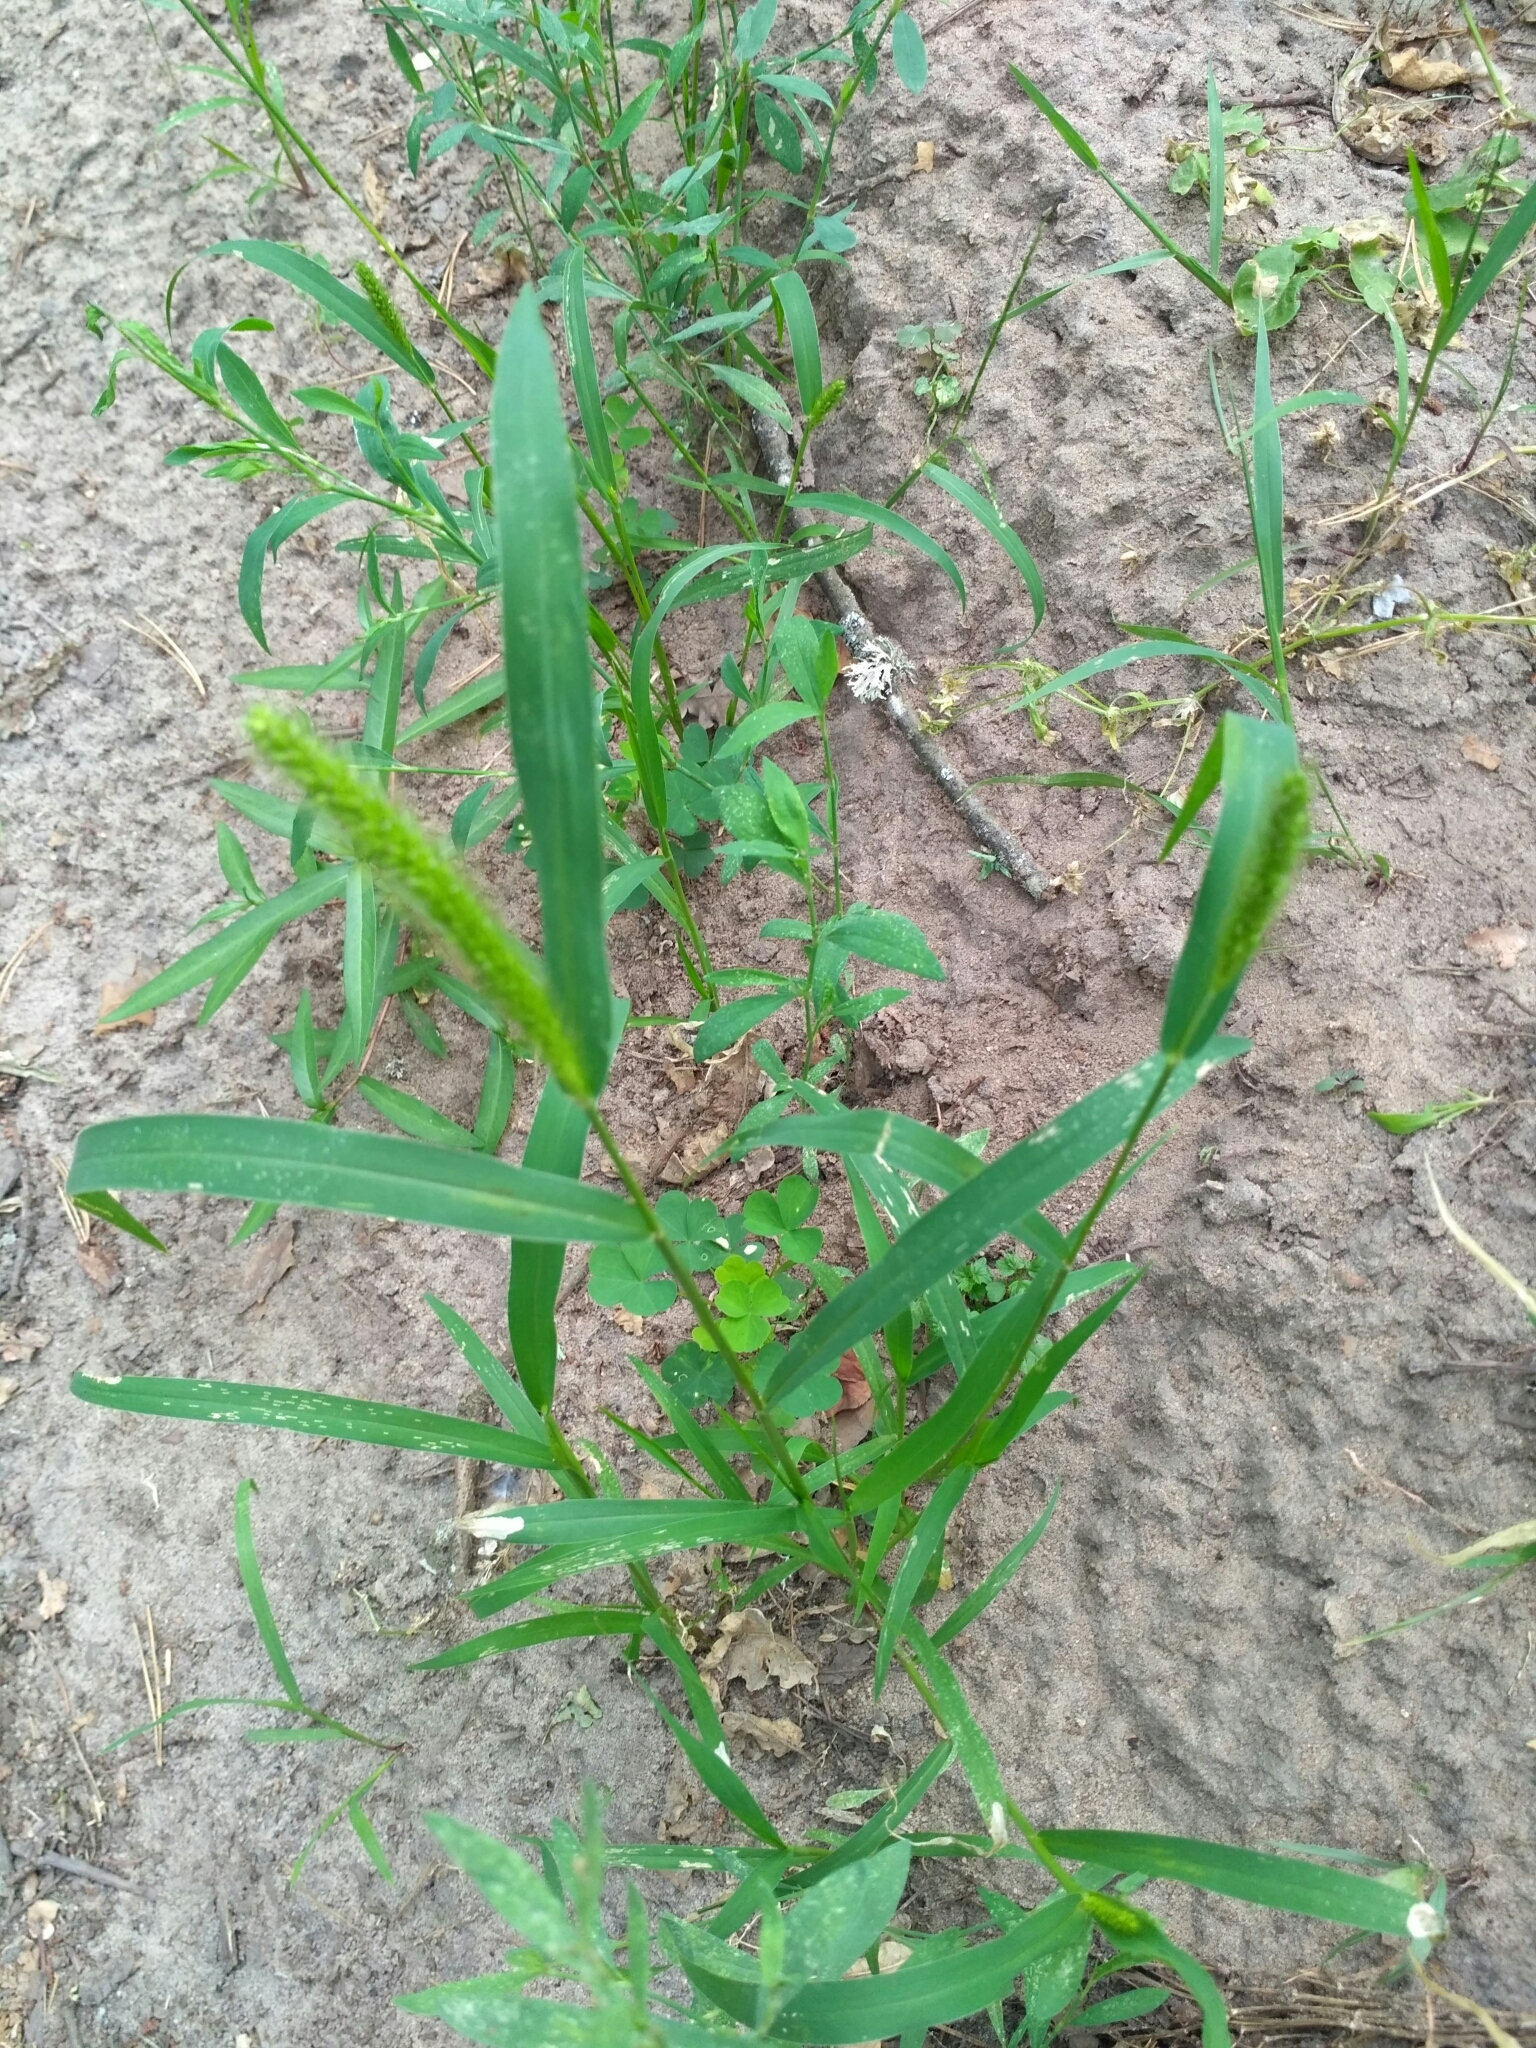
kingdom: Plantae
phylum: Tracheophyta
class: Liliopsida
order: Poales
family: Poaceae
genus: Setaria
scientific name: Setaria viridis
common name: Green bristlegrass
